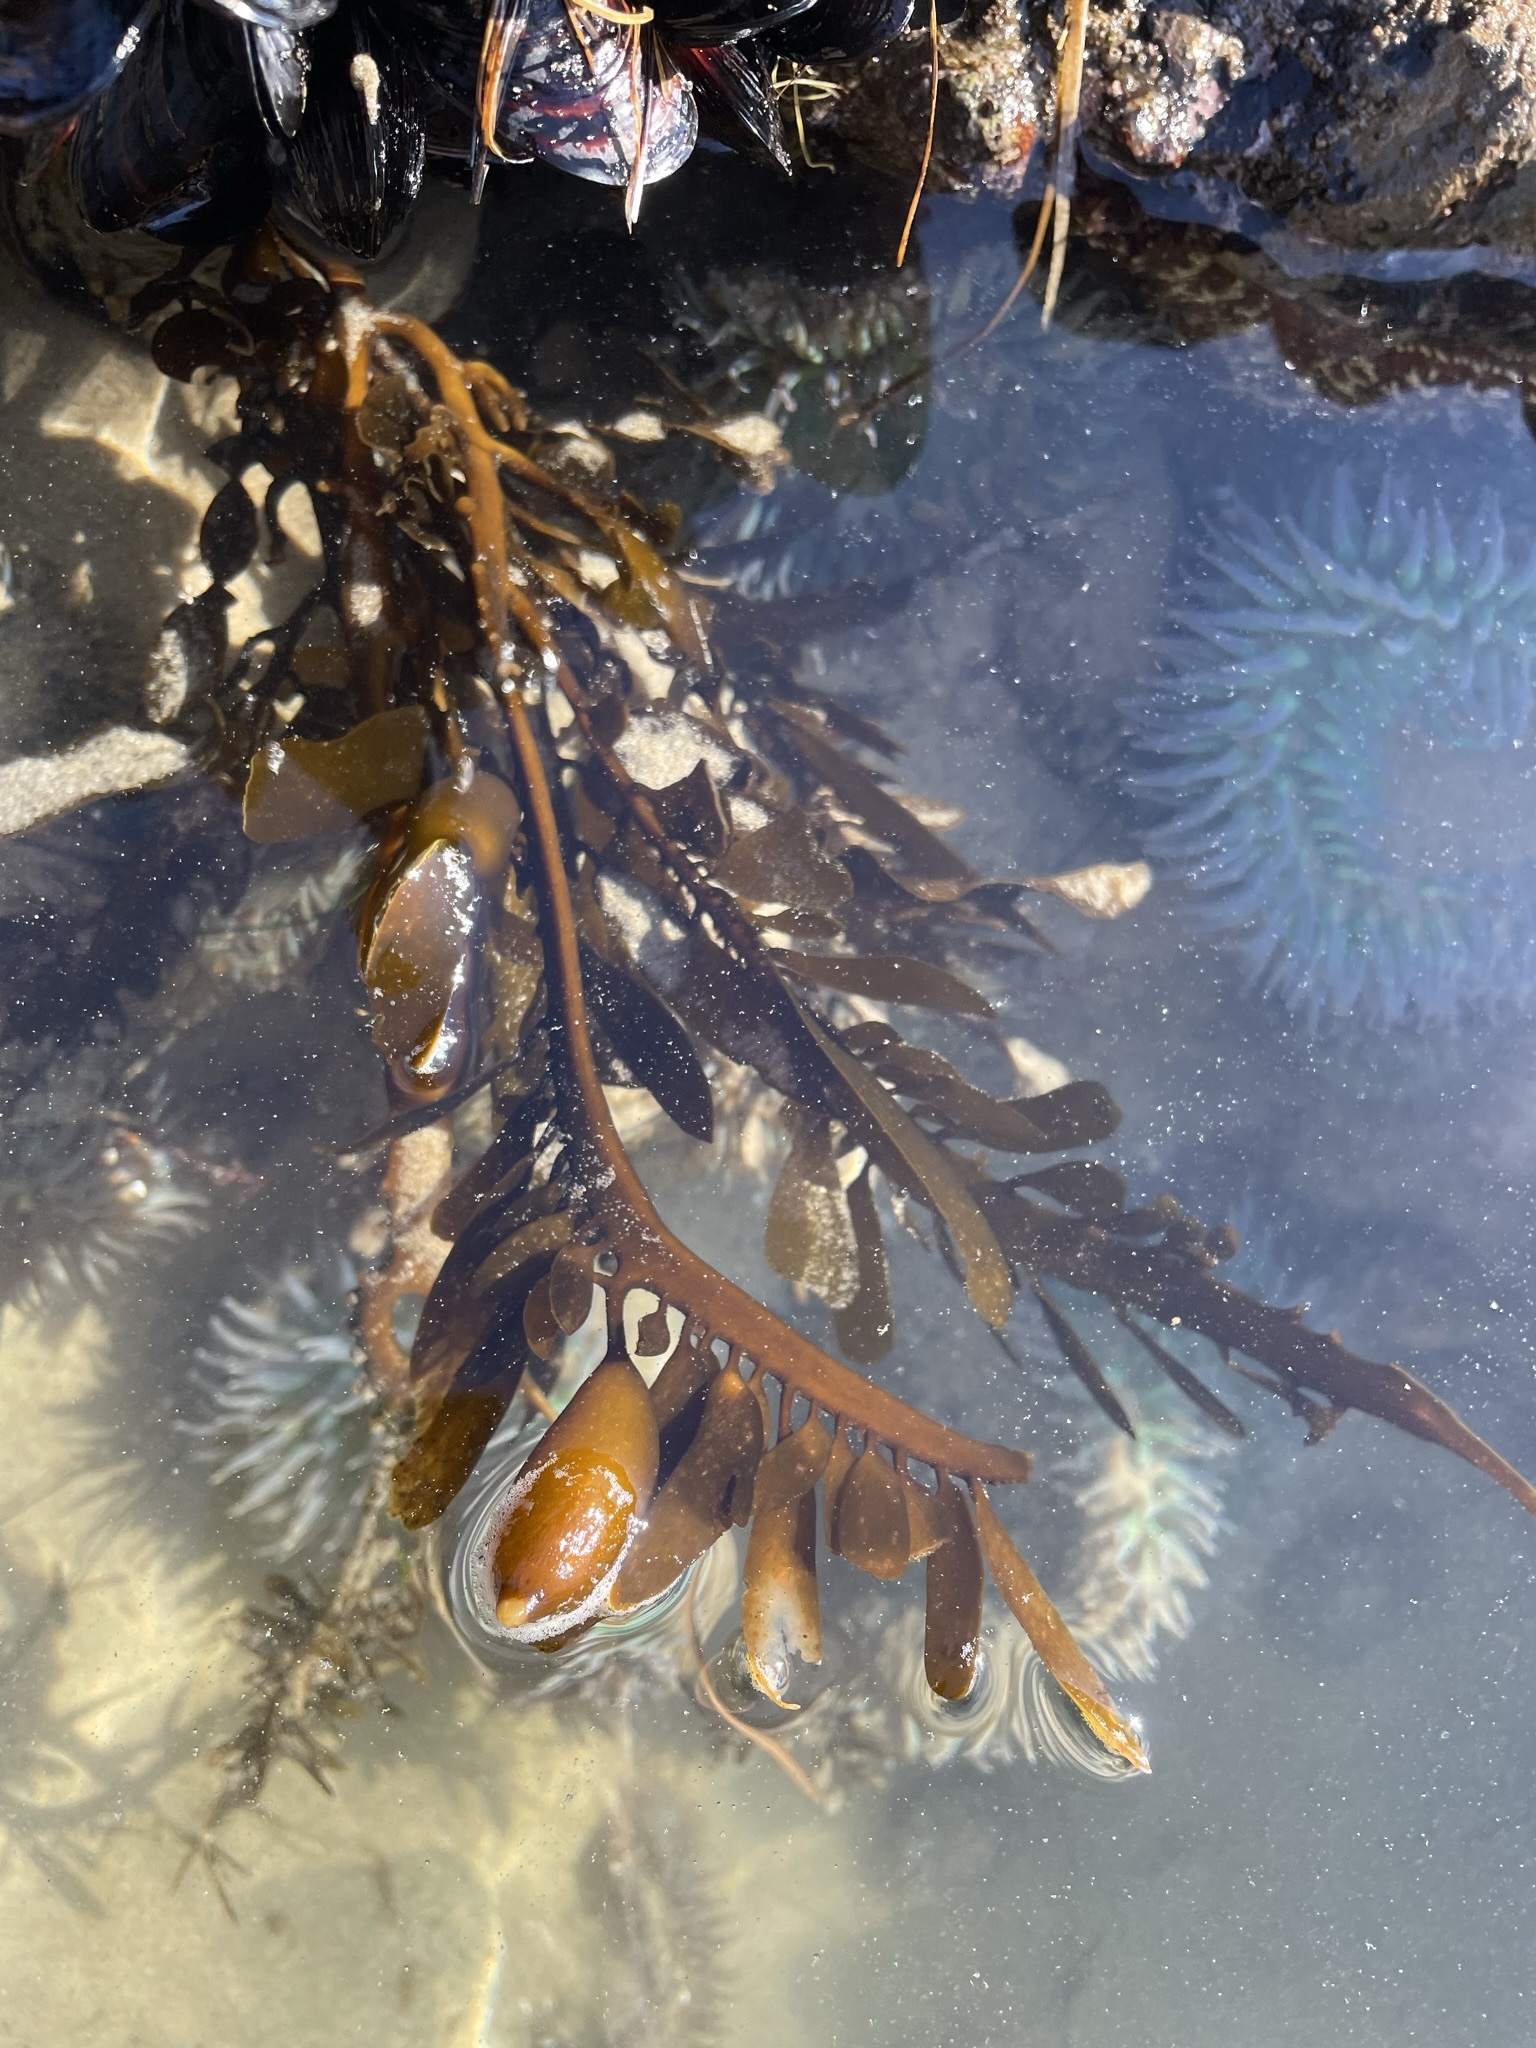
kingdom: Chromista
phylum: Ochrophyta
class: Phaeophyceae
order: Laminariales
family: Lessoniaceae
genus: Egregia
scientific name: Egregia menziesii
